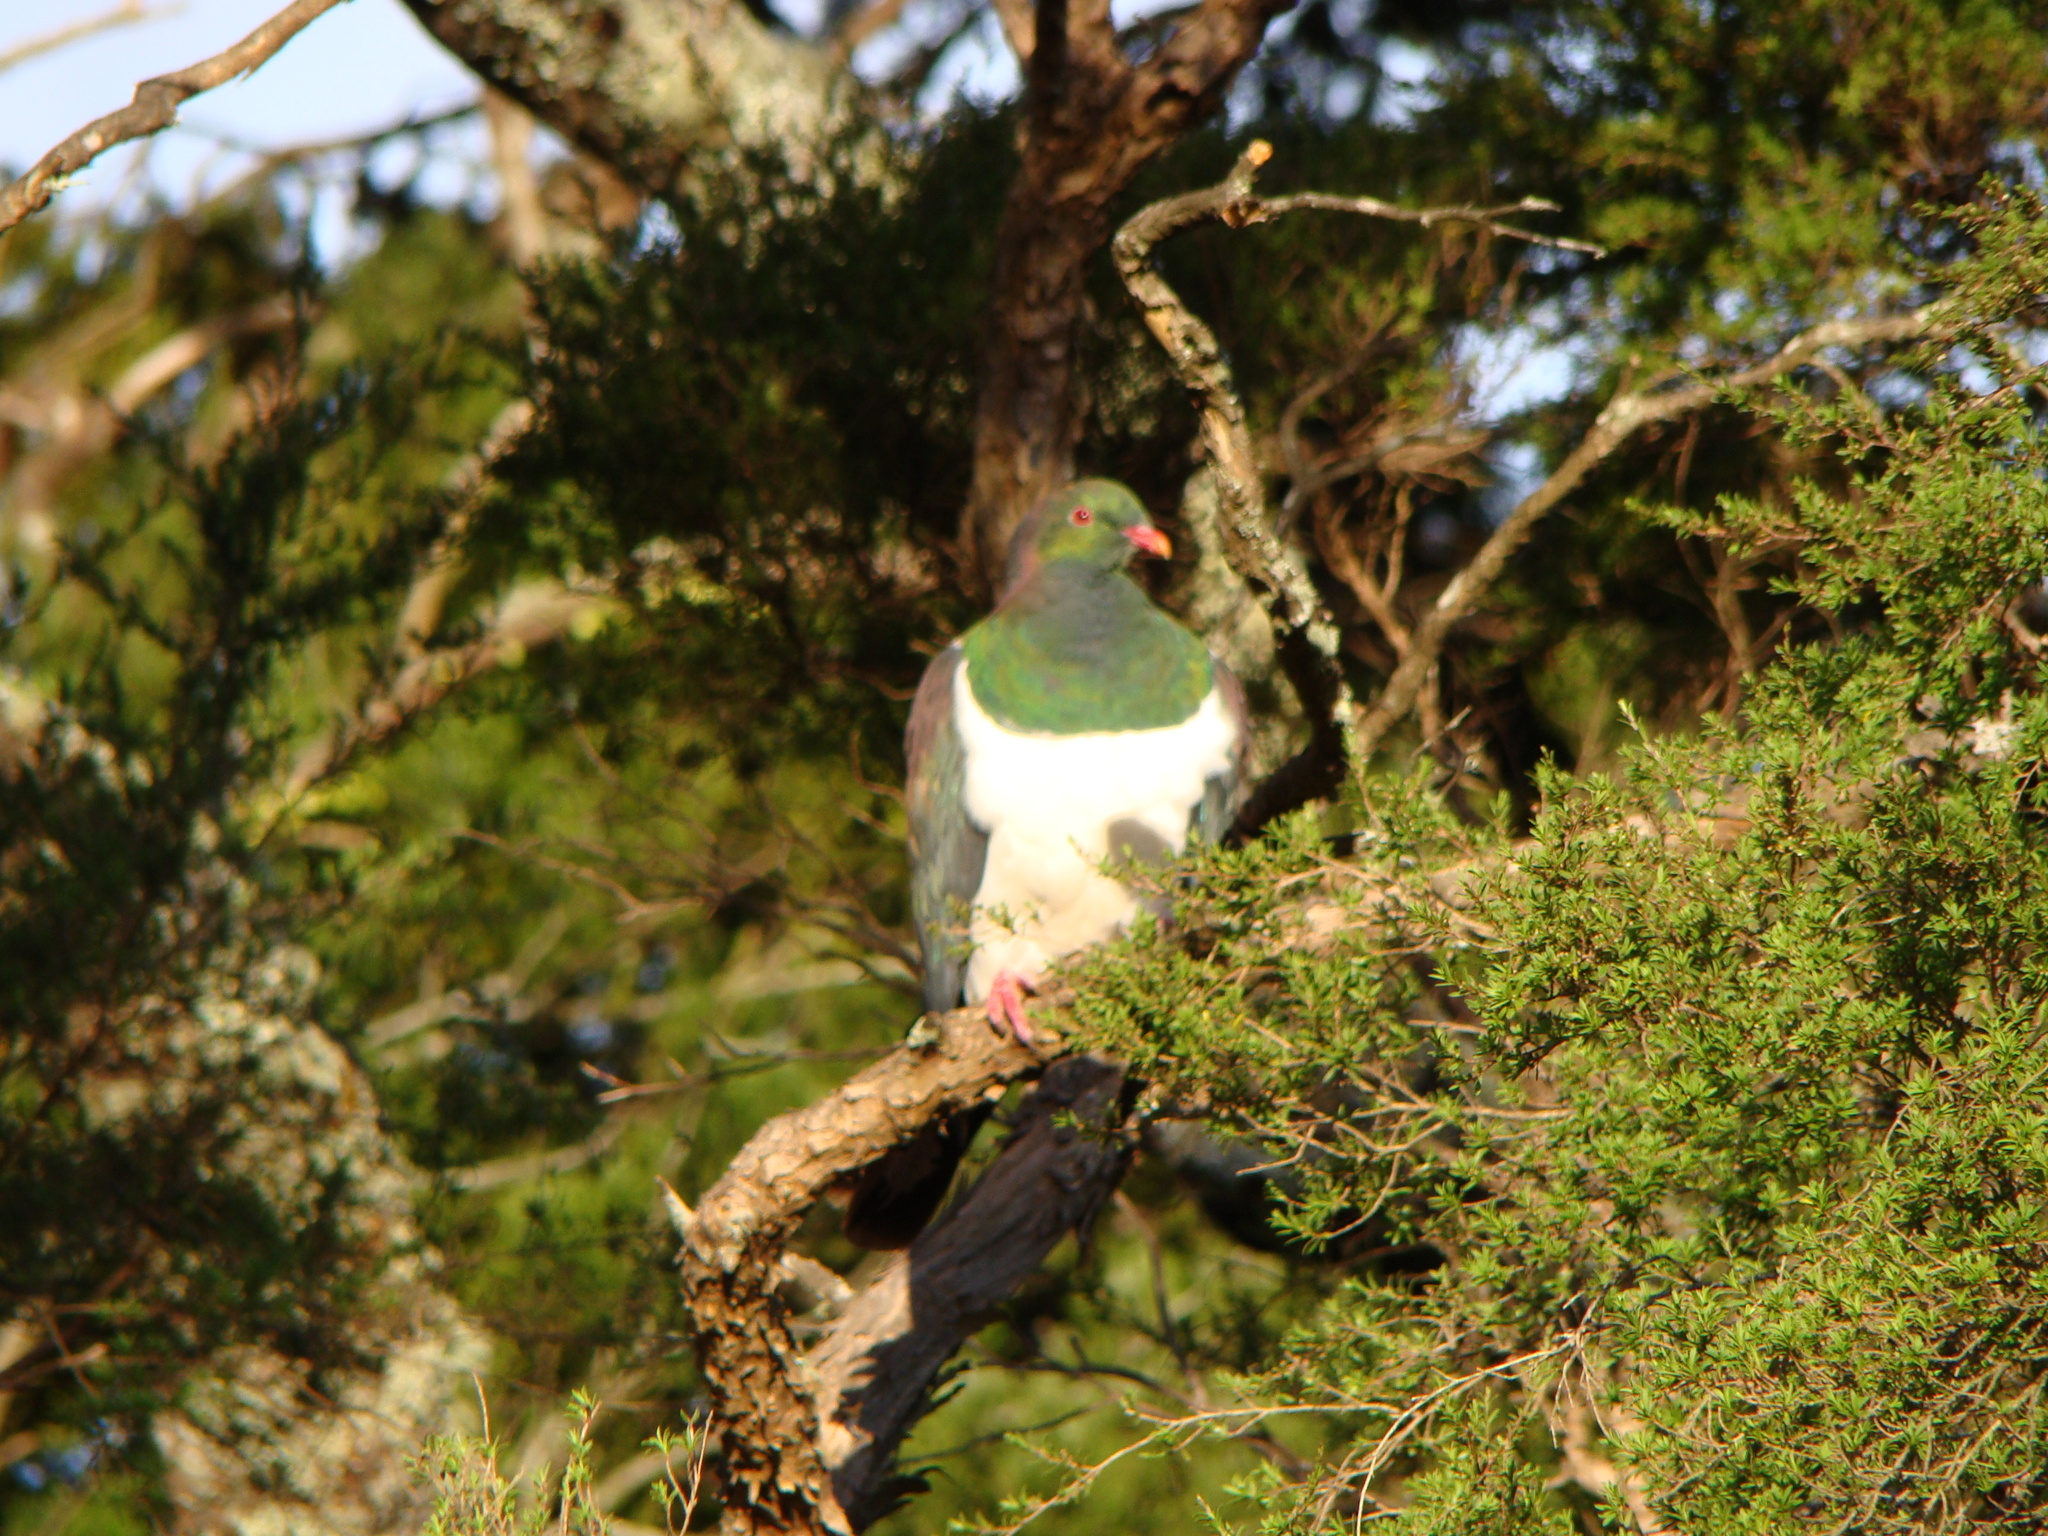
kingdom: Animalia
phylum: Chordata
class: Aves
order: Columbiformes
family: Columbidae
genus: Hemiphaga
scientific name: Hemiphaga novaeseelandiae
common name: New zealand pigeon
